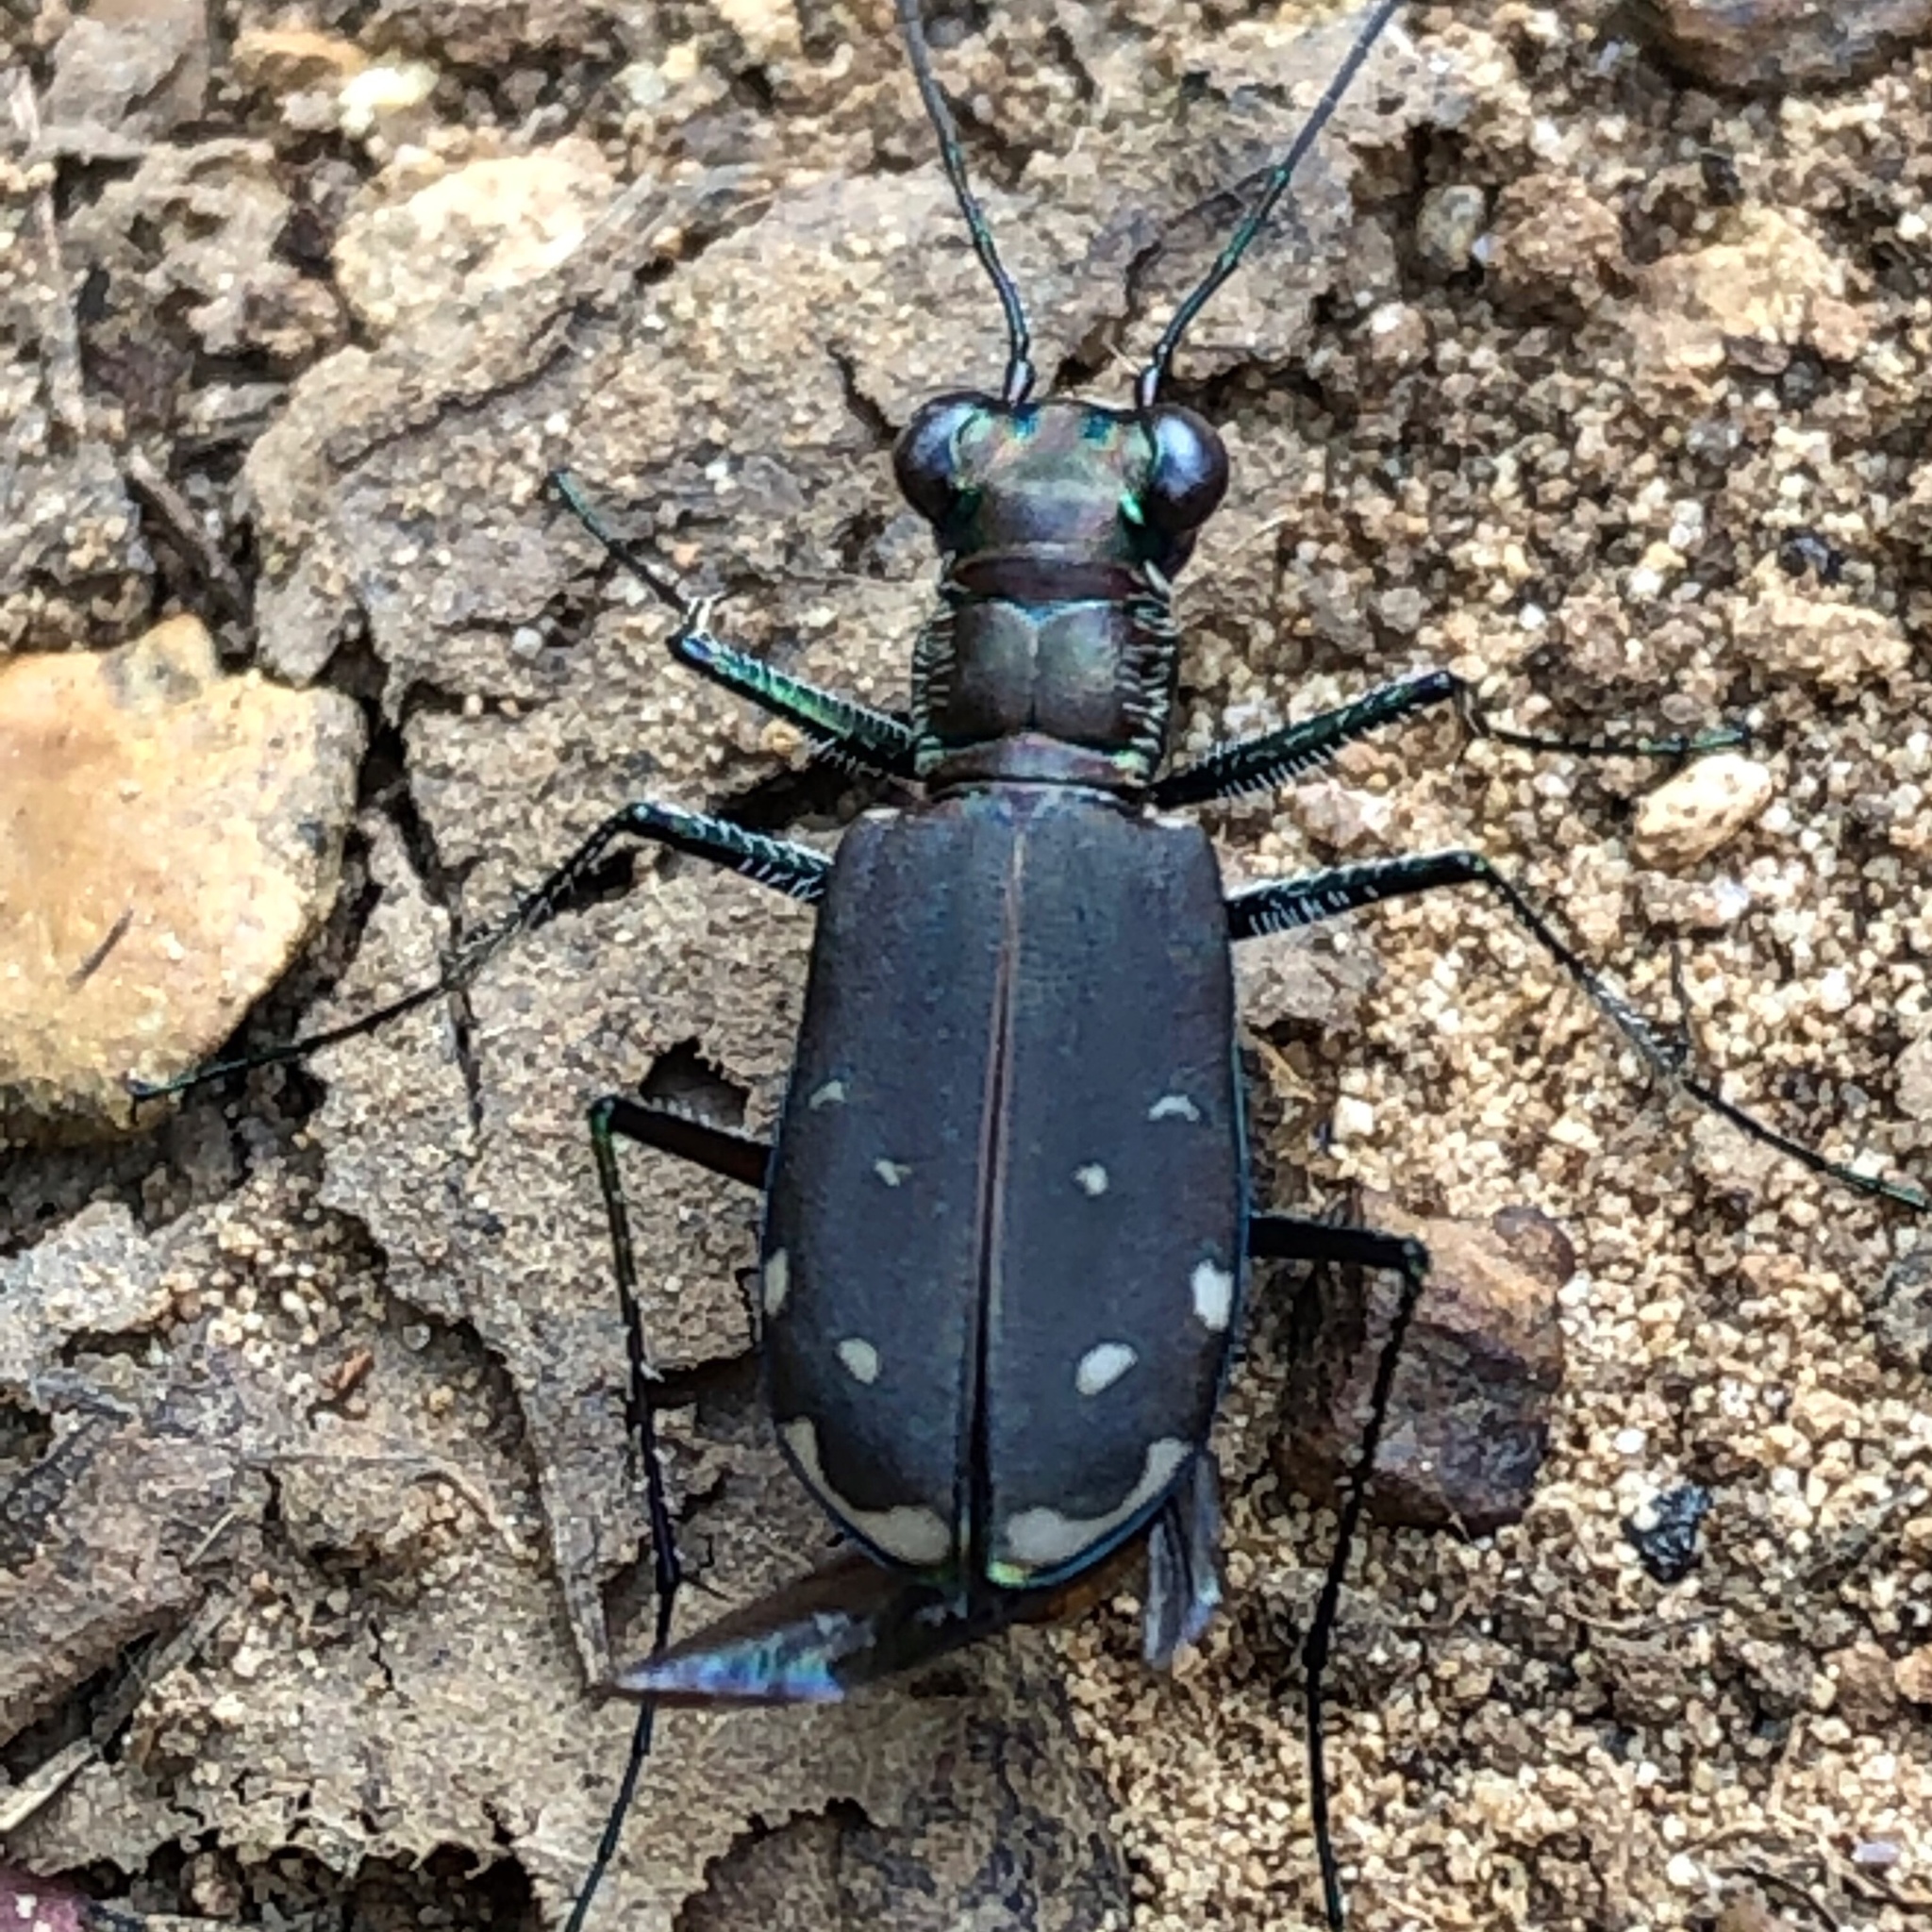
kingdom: Animalia
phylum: Arthropoda
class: Insecta
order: Coleoptera
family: Carabidae
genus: Cicindela
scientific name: Cicindela rufiventris
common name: Eastern red-bellied tiger beetle
